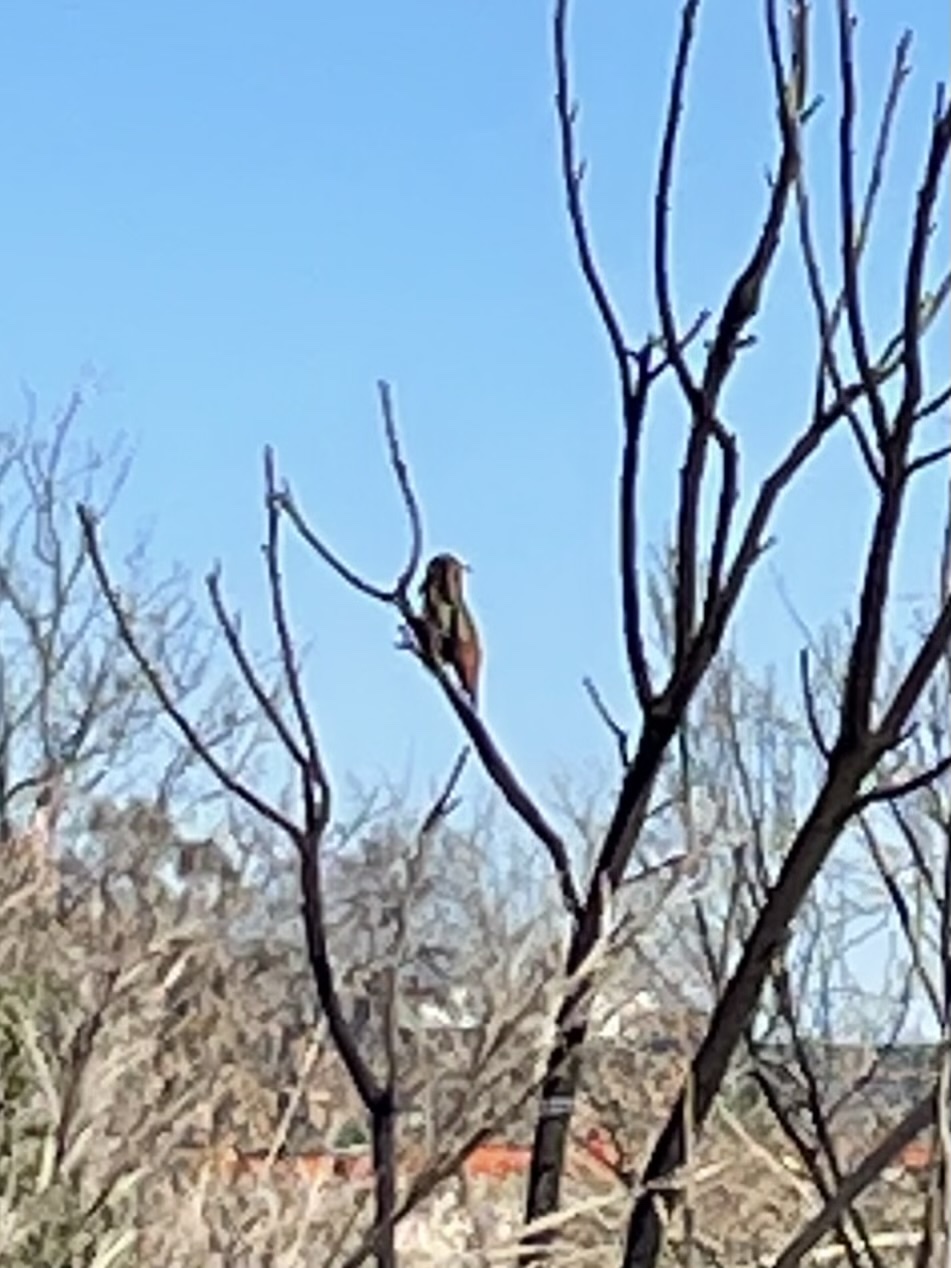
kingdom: Animalia
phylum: Chordata
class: Aves
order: Apodiformes
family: Trochilidae
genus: Selasphorus
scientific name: Selasphorus
